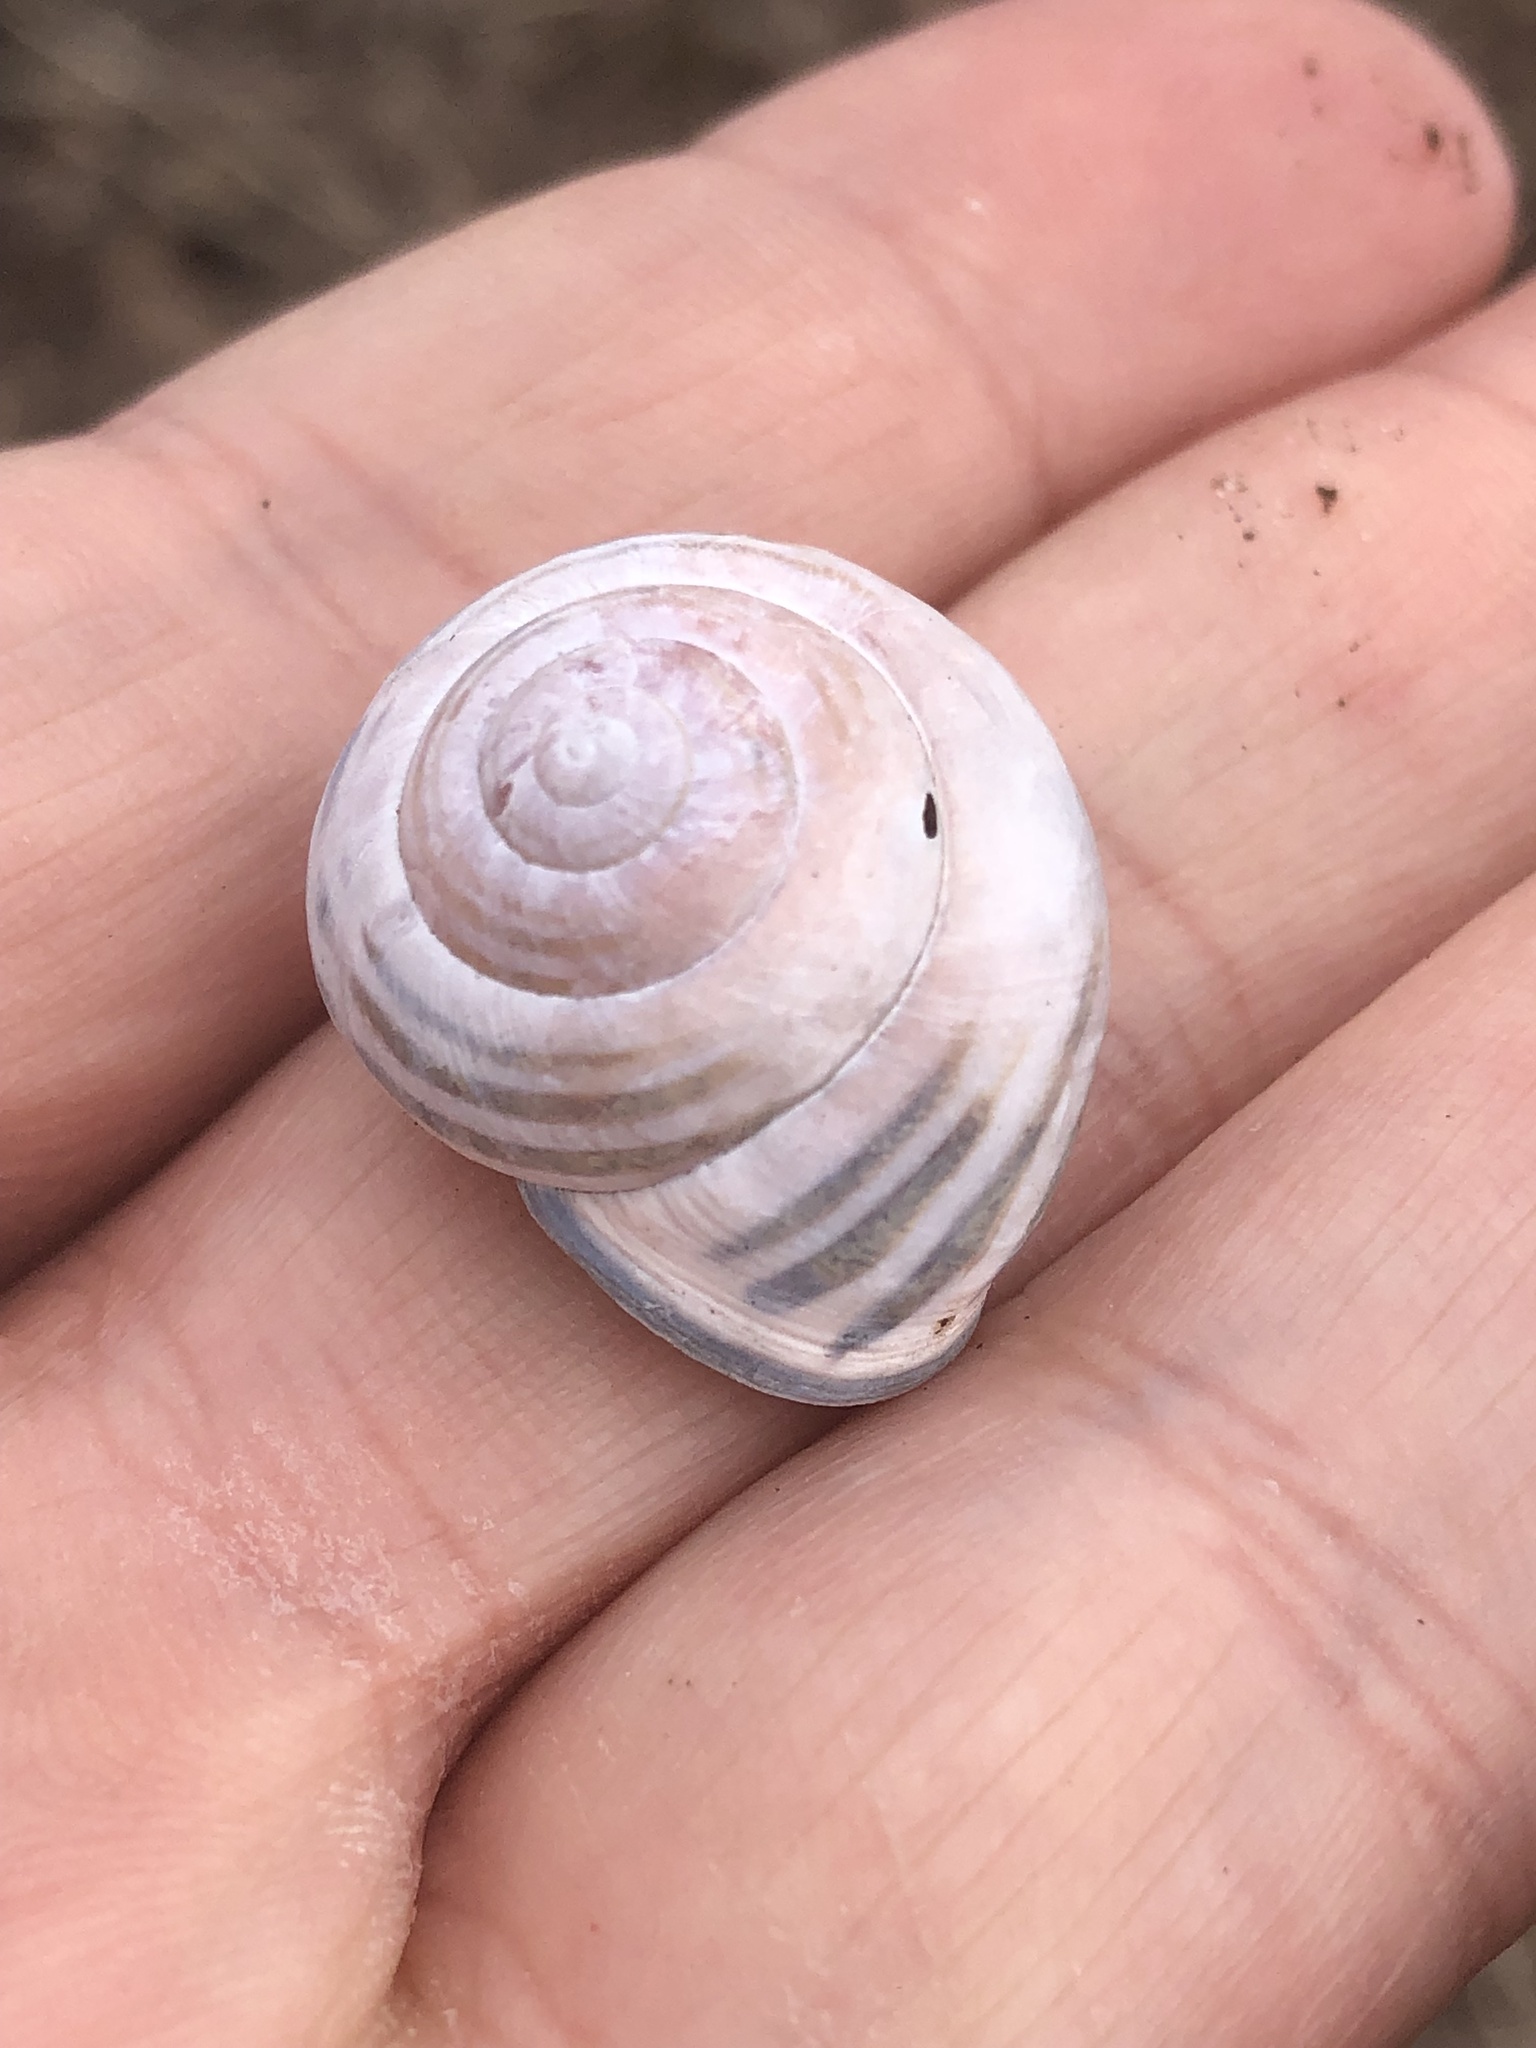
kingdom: Animalia
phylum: Mollusca
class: Gastropoda
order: Stylommatophora
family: Helicidae
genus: Cepaea
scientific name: Cepaea nemoralis
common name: Grovesnail
